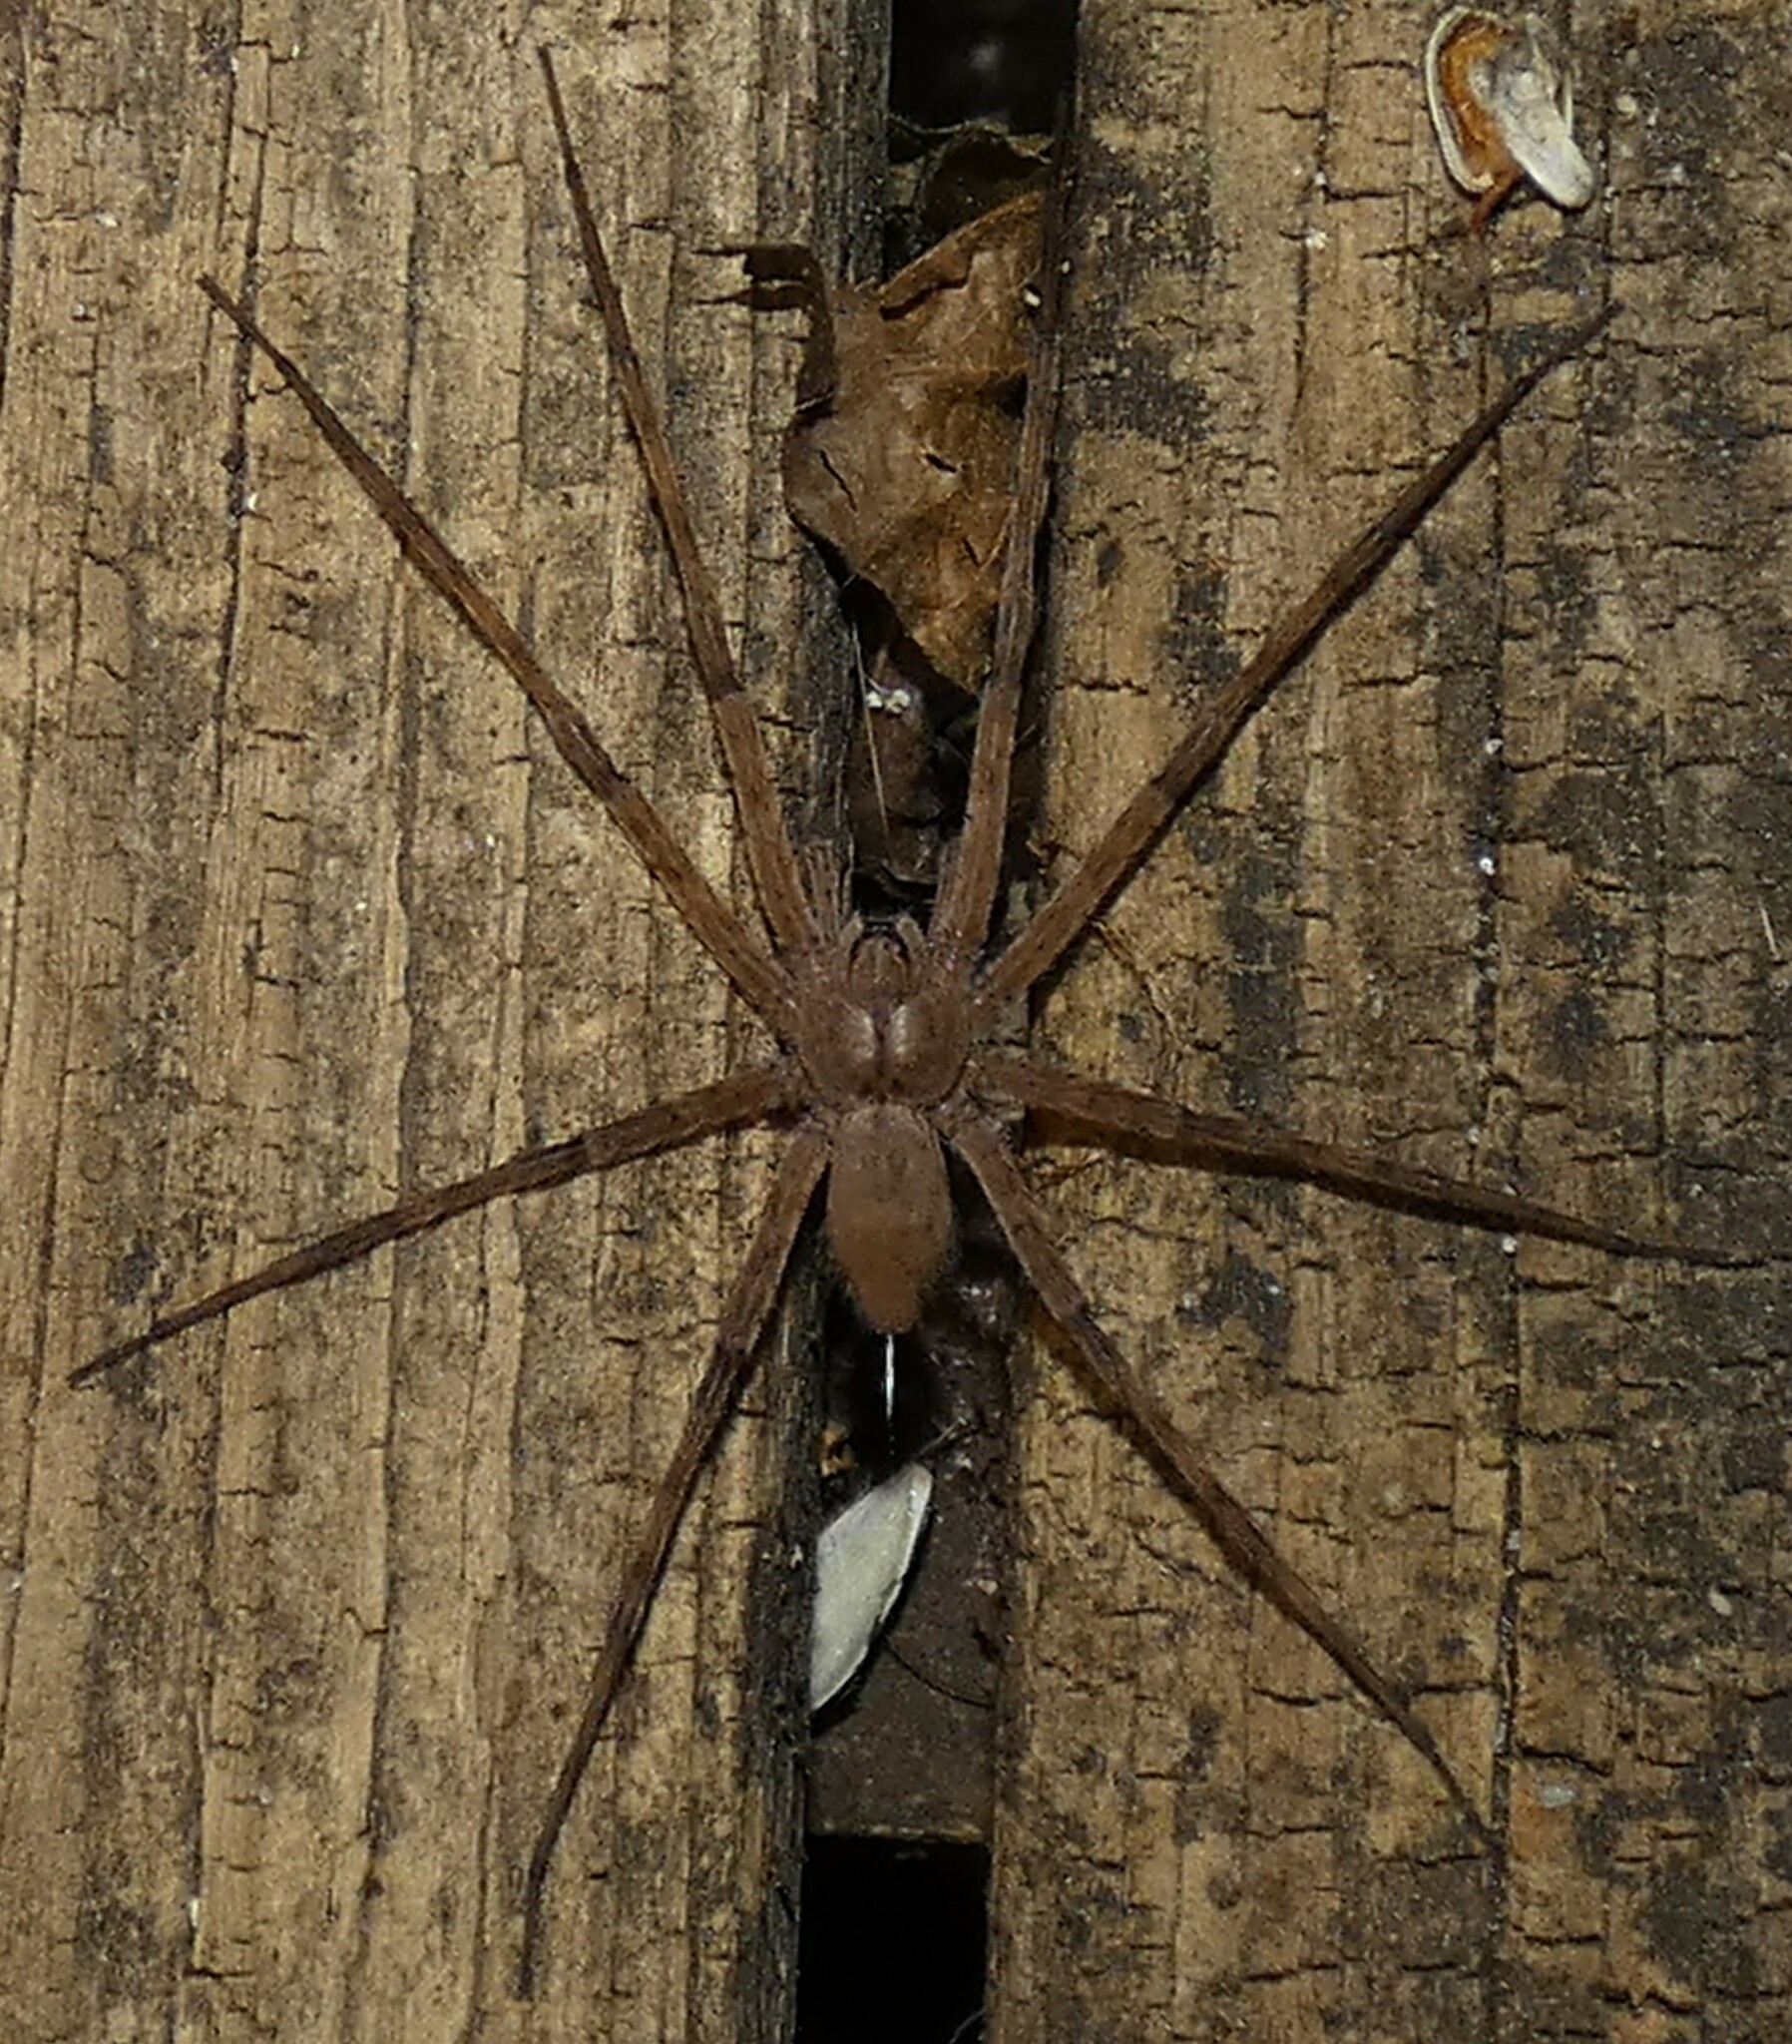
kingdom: Animalia
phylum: Arthropoda
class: Arachnida
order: Araneae
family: Pisauridae
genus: Dolomedes
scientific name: Dolomedes albineus
